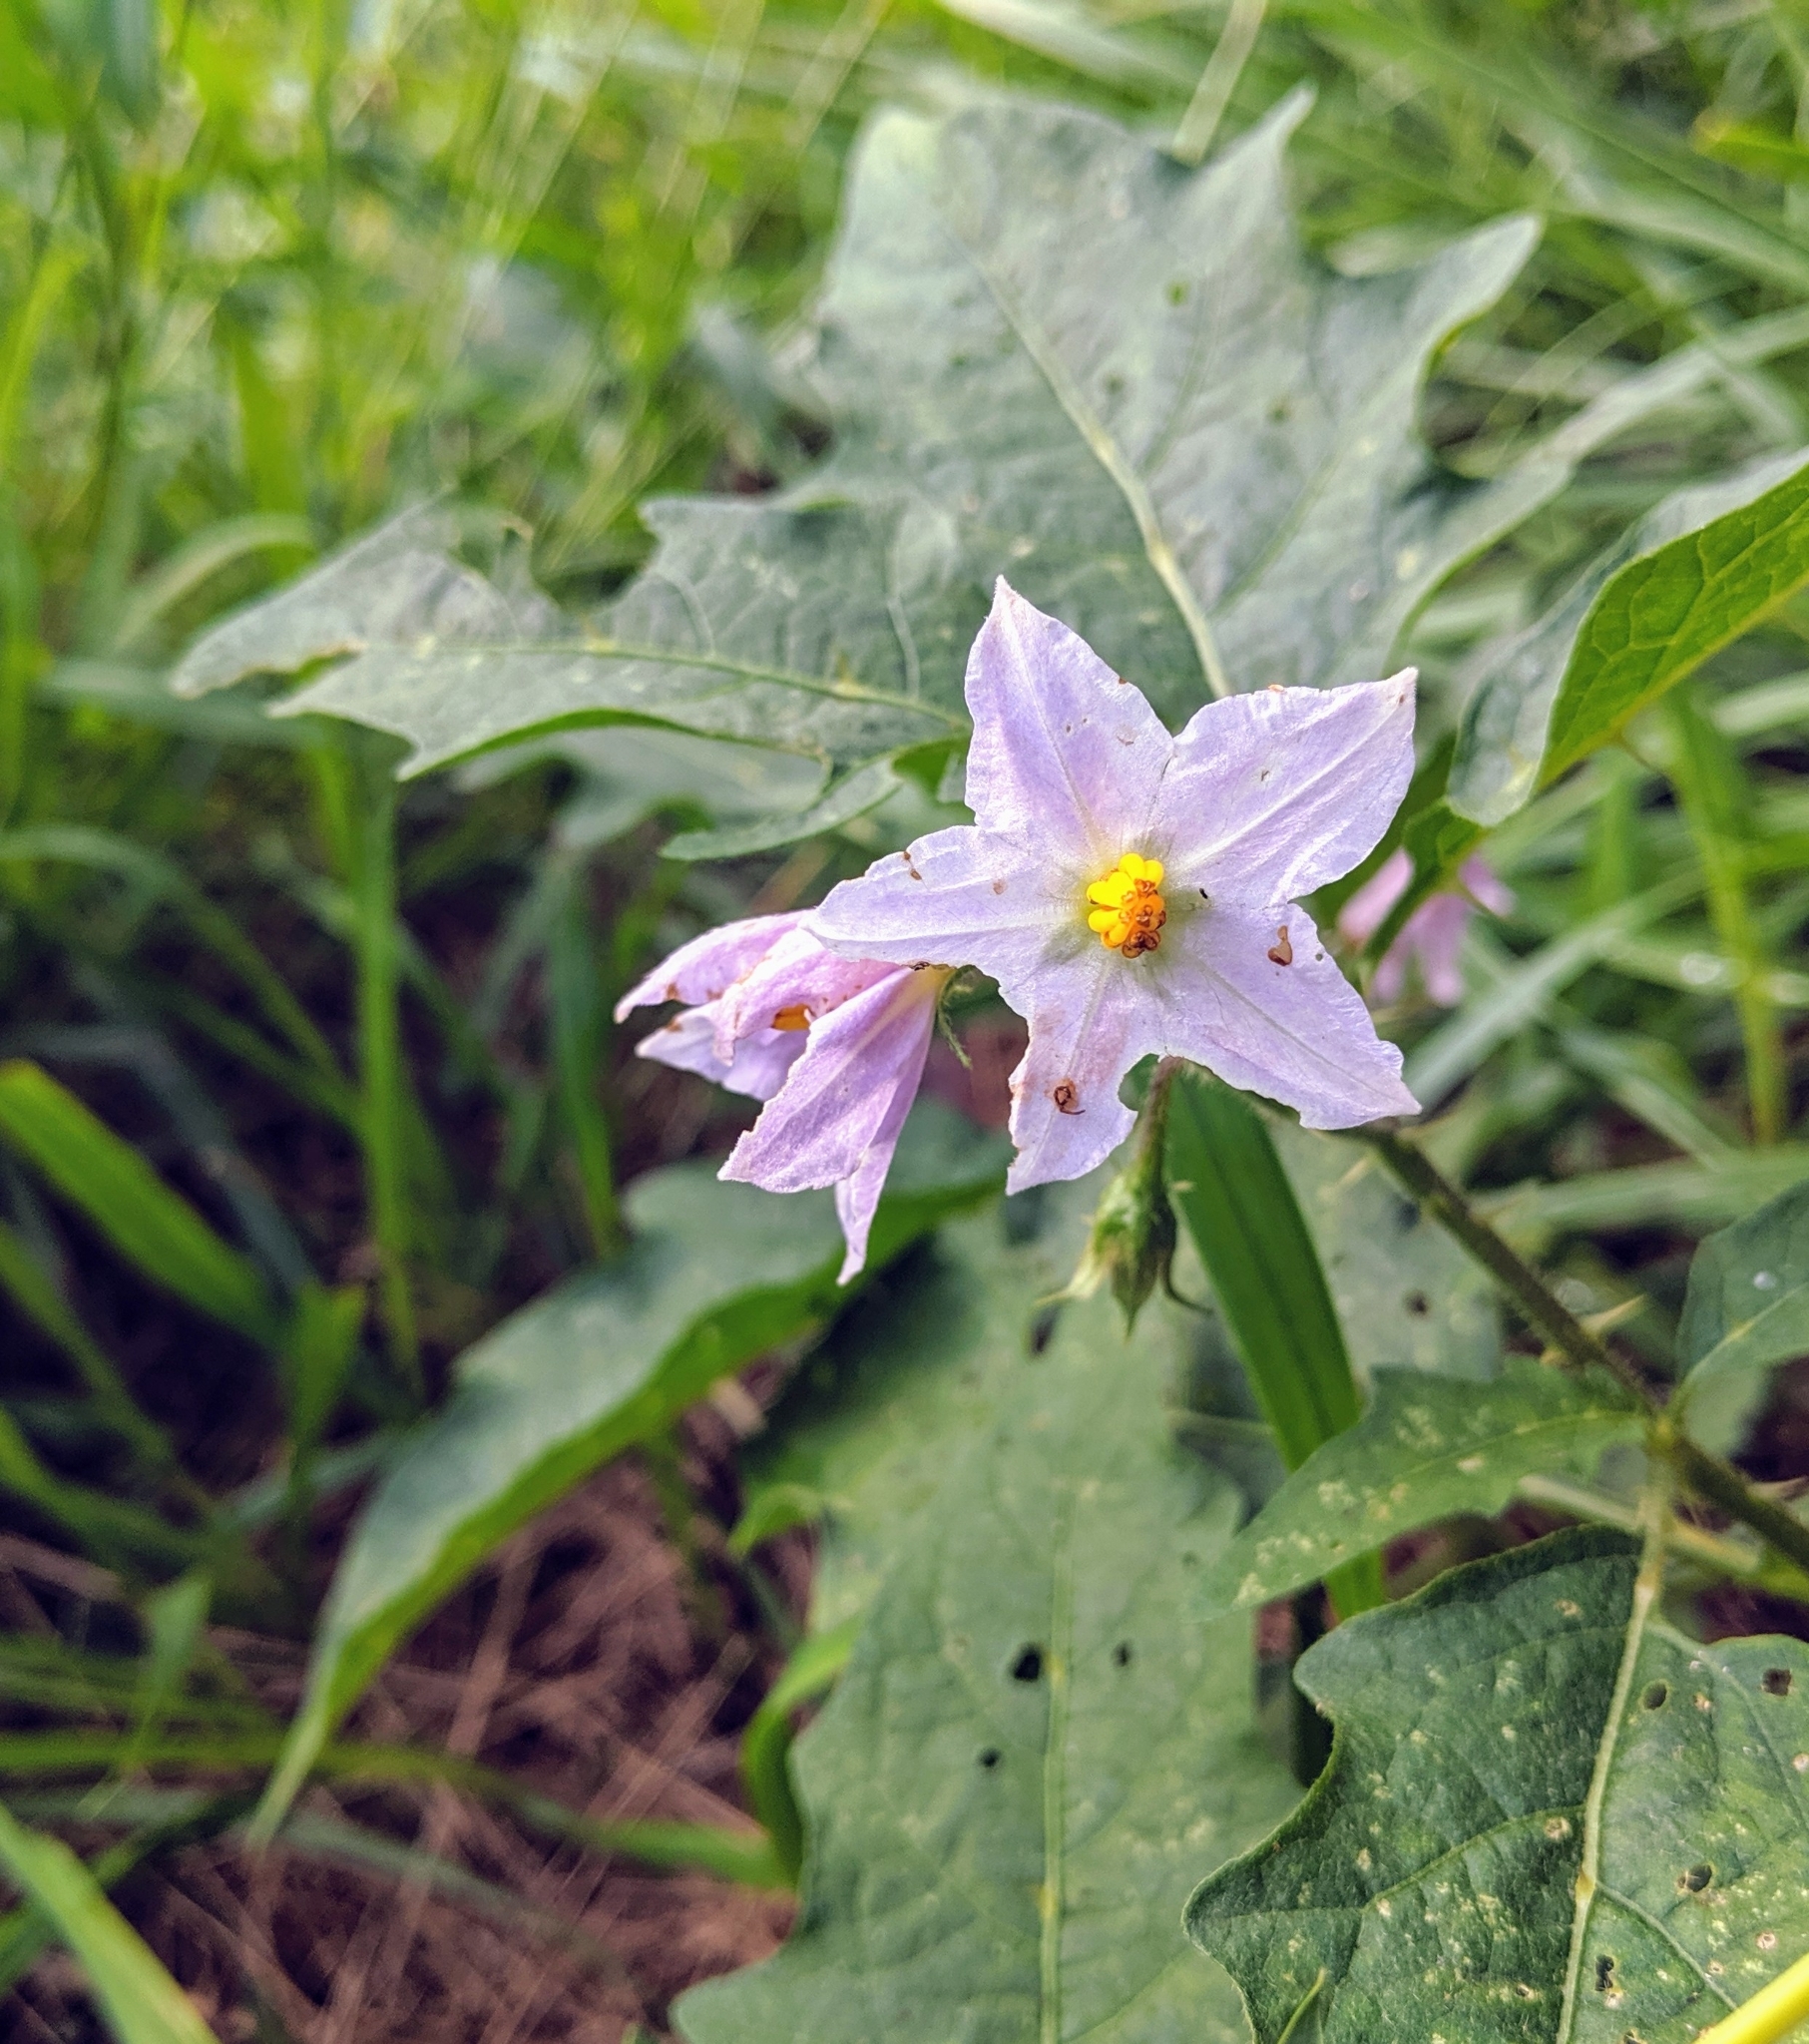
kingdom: Plantae
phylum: Tracheophyta
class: Magnoliopsida
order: Solanales
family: Solanaceae
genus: Solanum
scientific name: Solanum carolinense
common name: Horse-nettle
